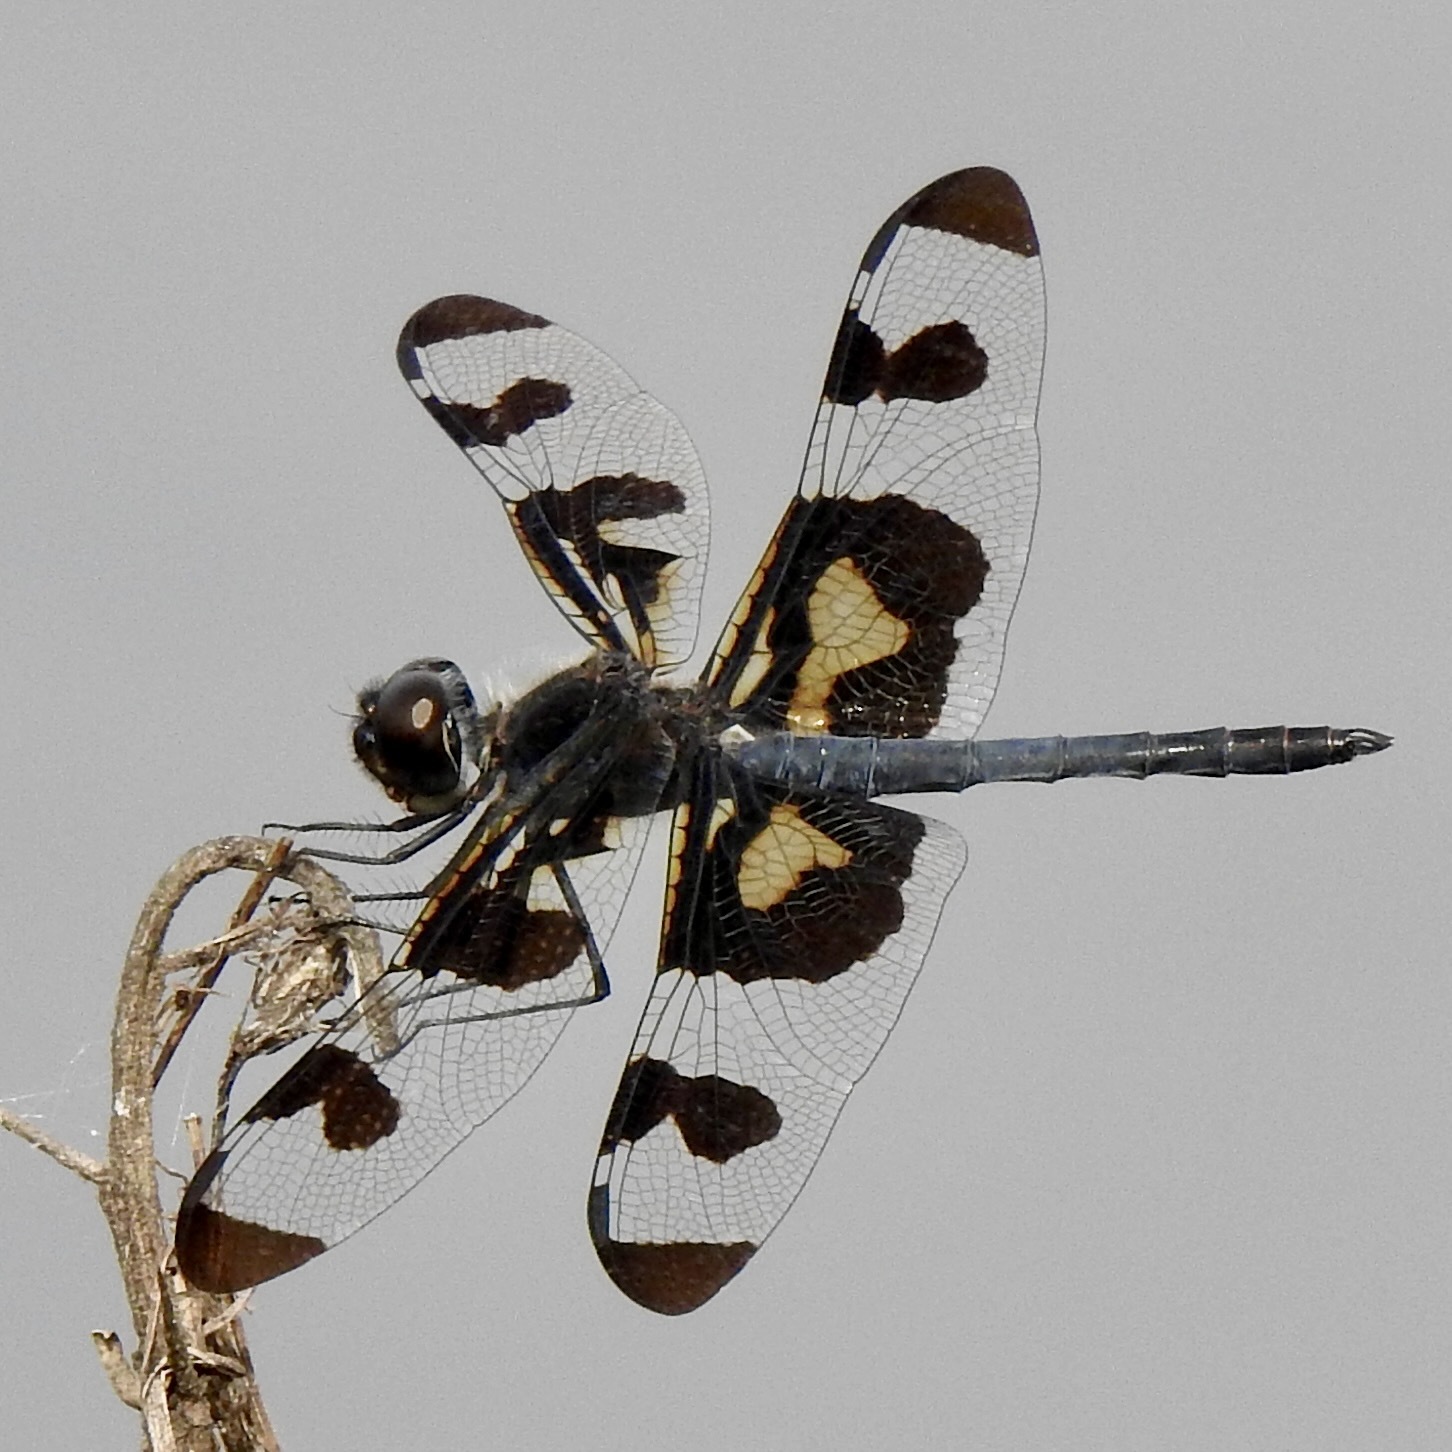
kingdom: Animalia
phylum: Arthropoda
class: Insecta
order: Odonata
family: Libellulidae
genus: Celithemis
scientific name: Celithemis fasciata
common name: Banded pennant
